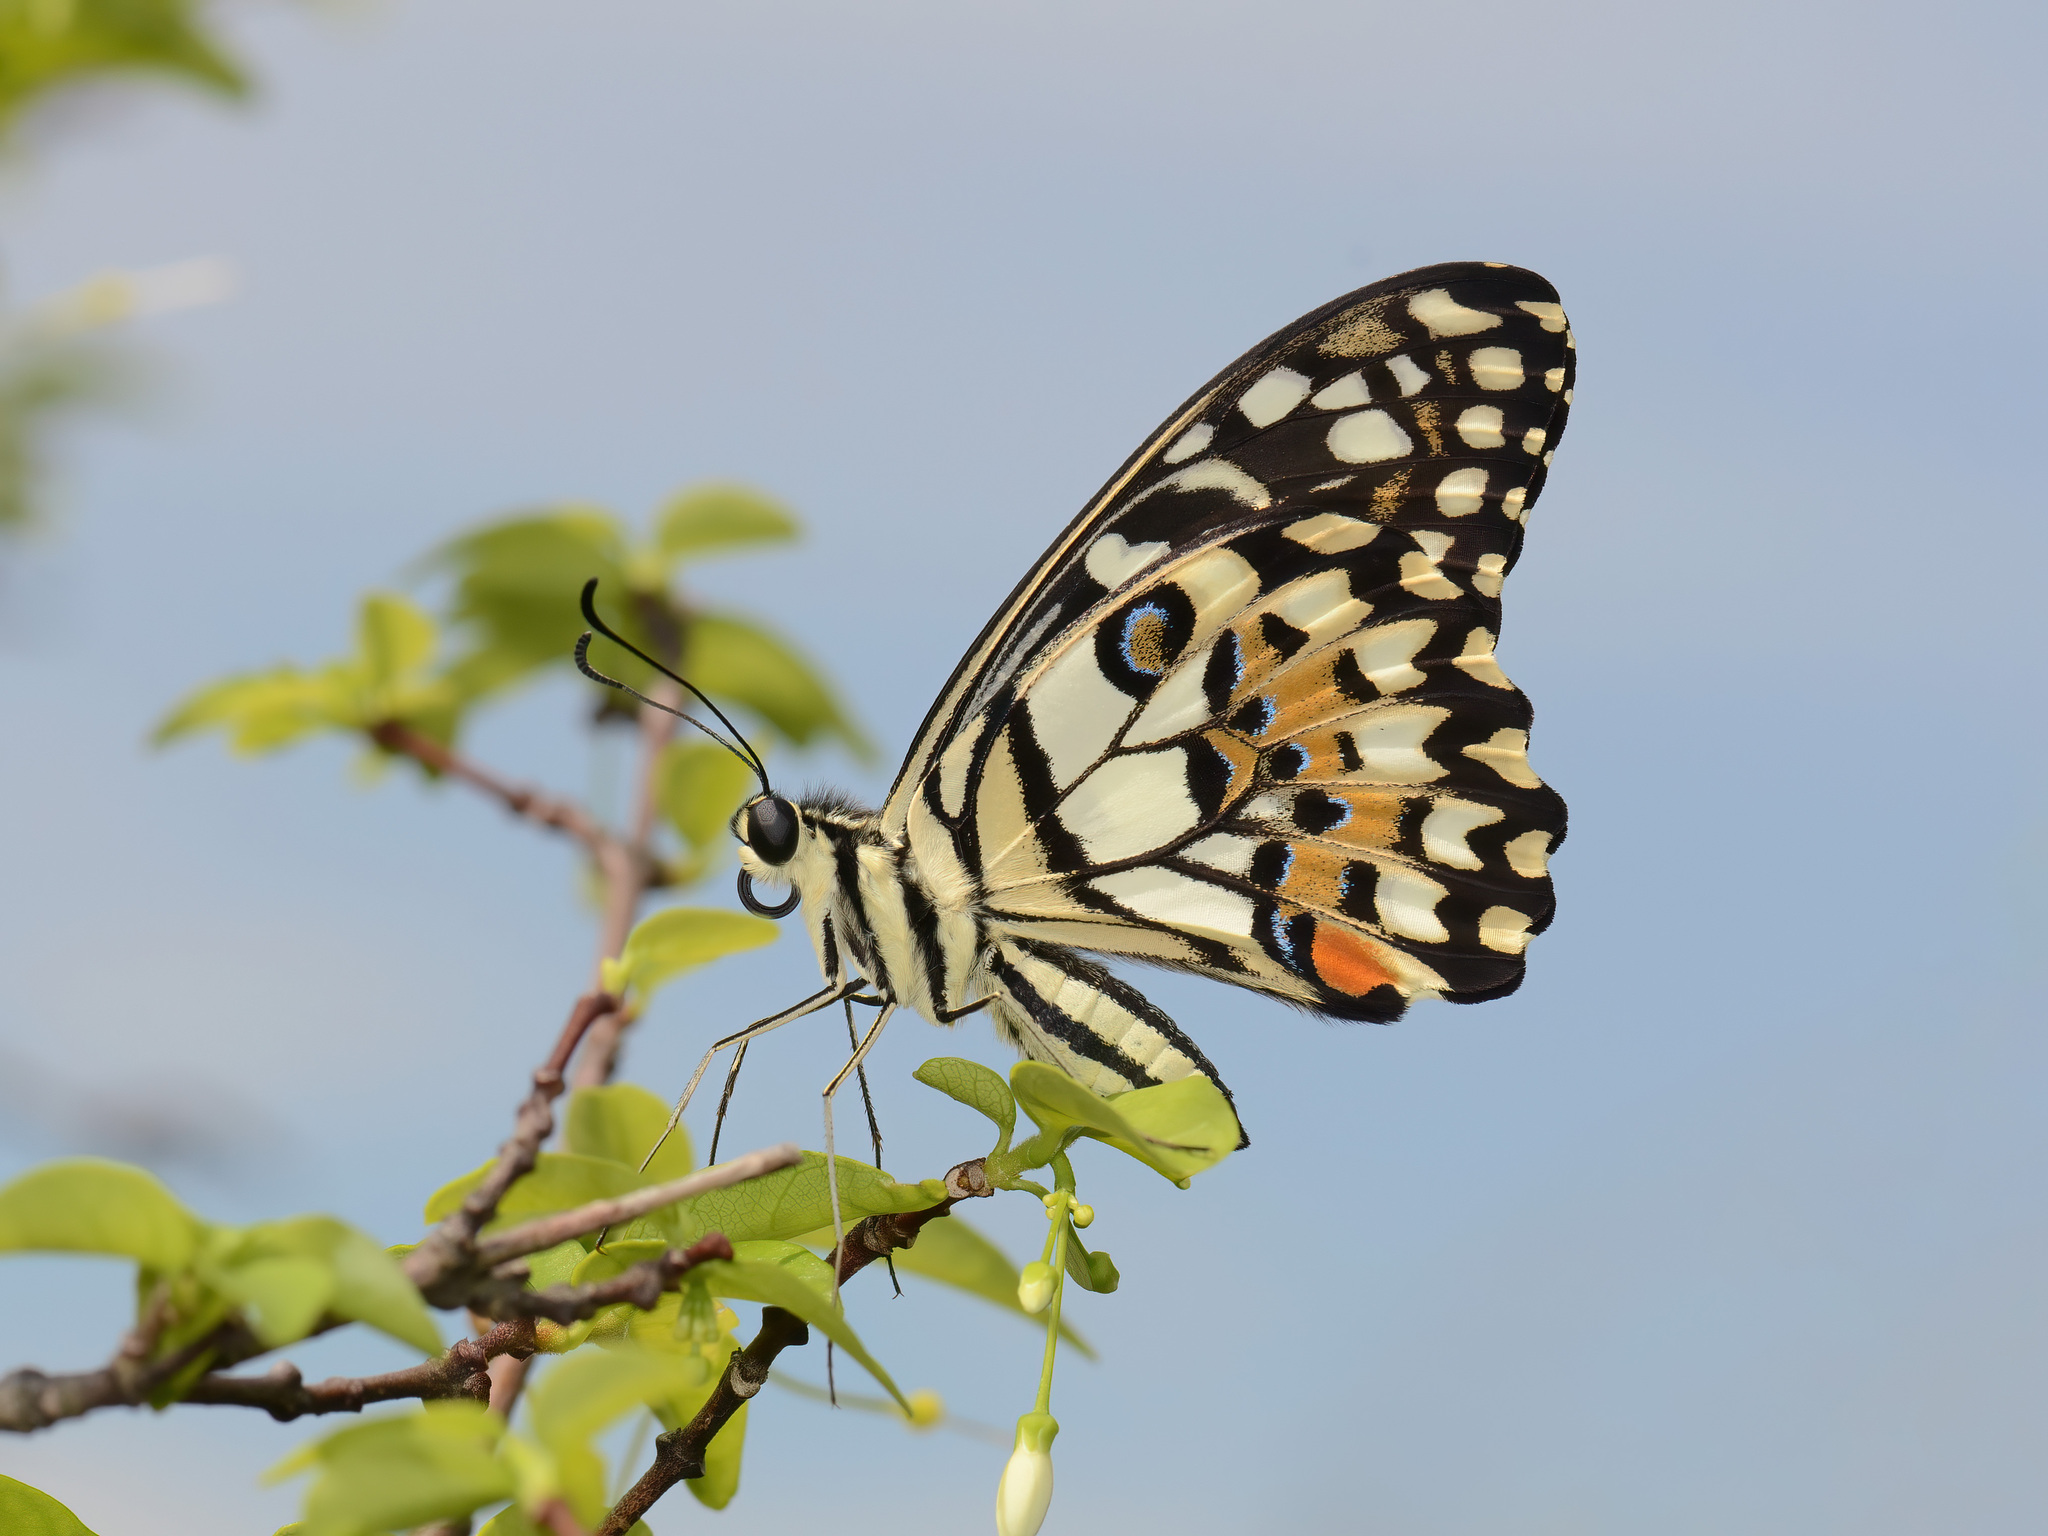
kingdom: Animalia
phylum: Arthropoda
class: Insecta
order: Lepidoptera
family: Papilionidae
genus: Papilio
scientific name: Papilio demoleus
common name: Lime butterfly
